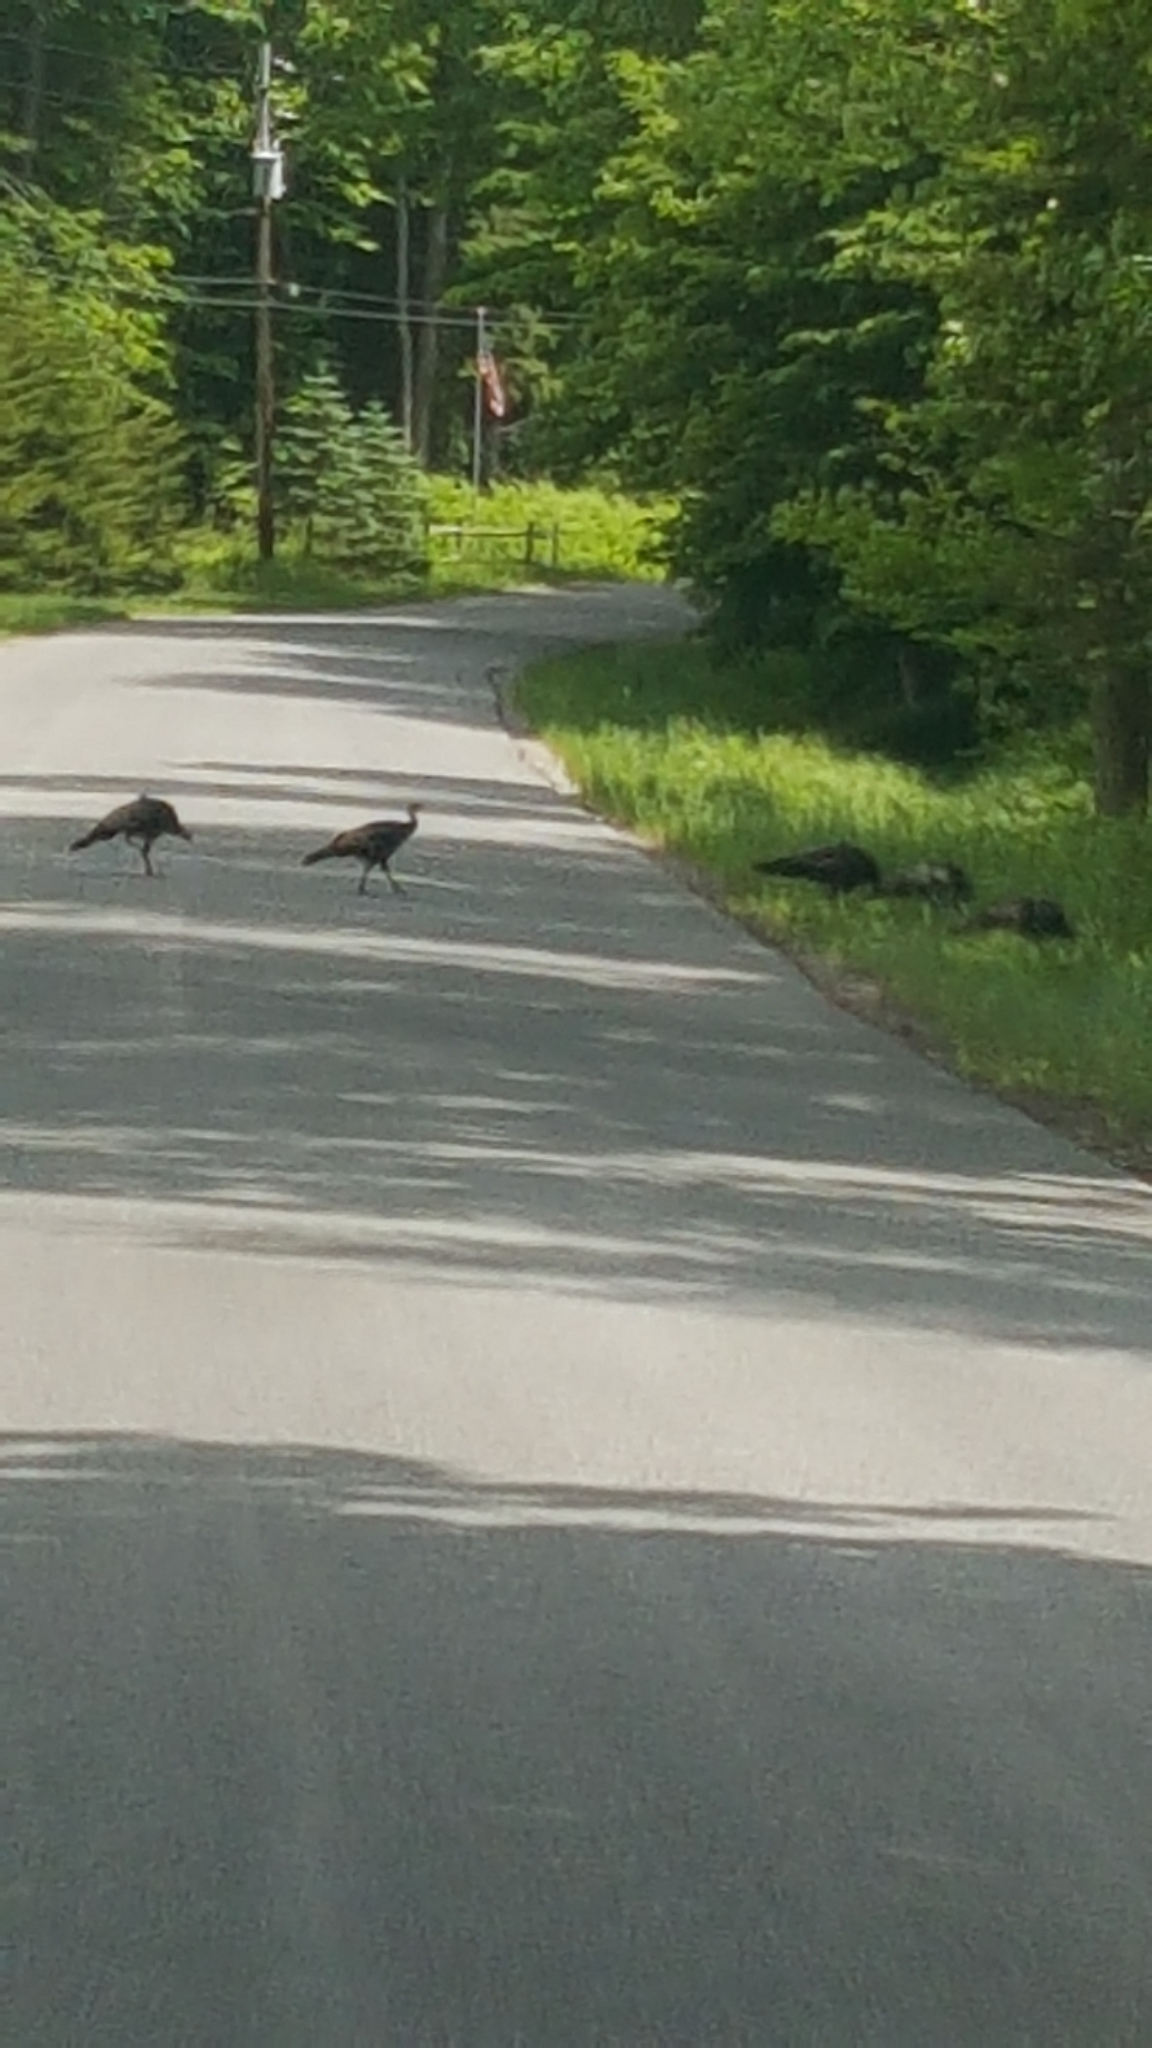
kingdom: Animalia
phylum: Chordata
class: Aves
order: Galliformes
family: Phasianidae
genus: Meleagris
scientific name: Meleagris gallopavo
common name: Wild turkey
